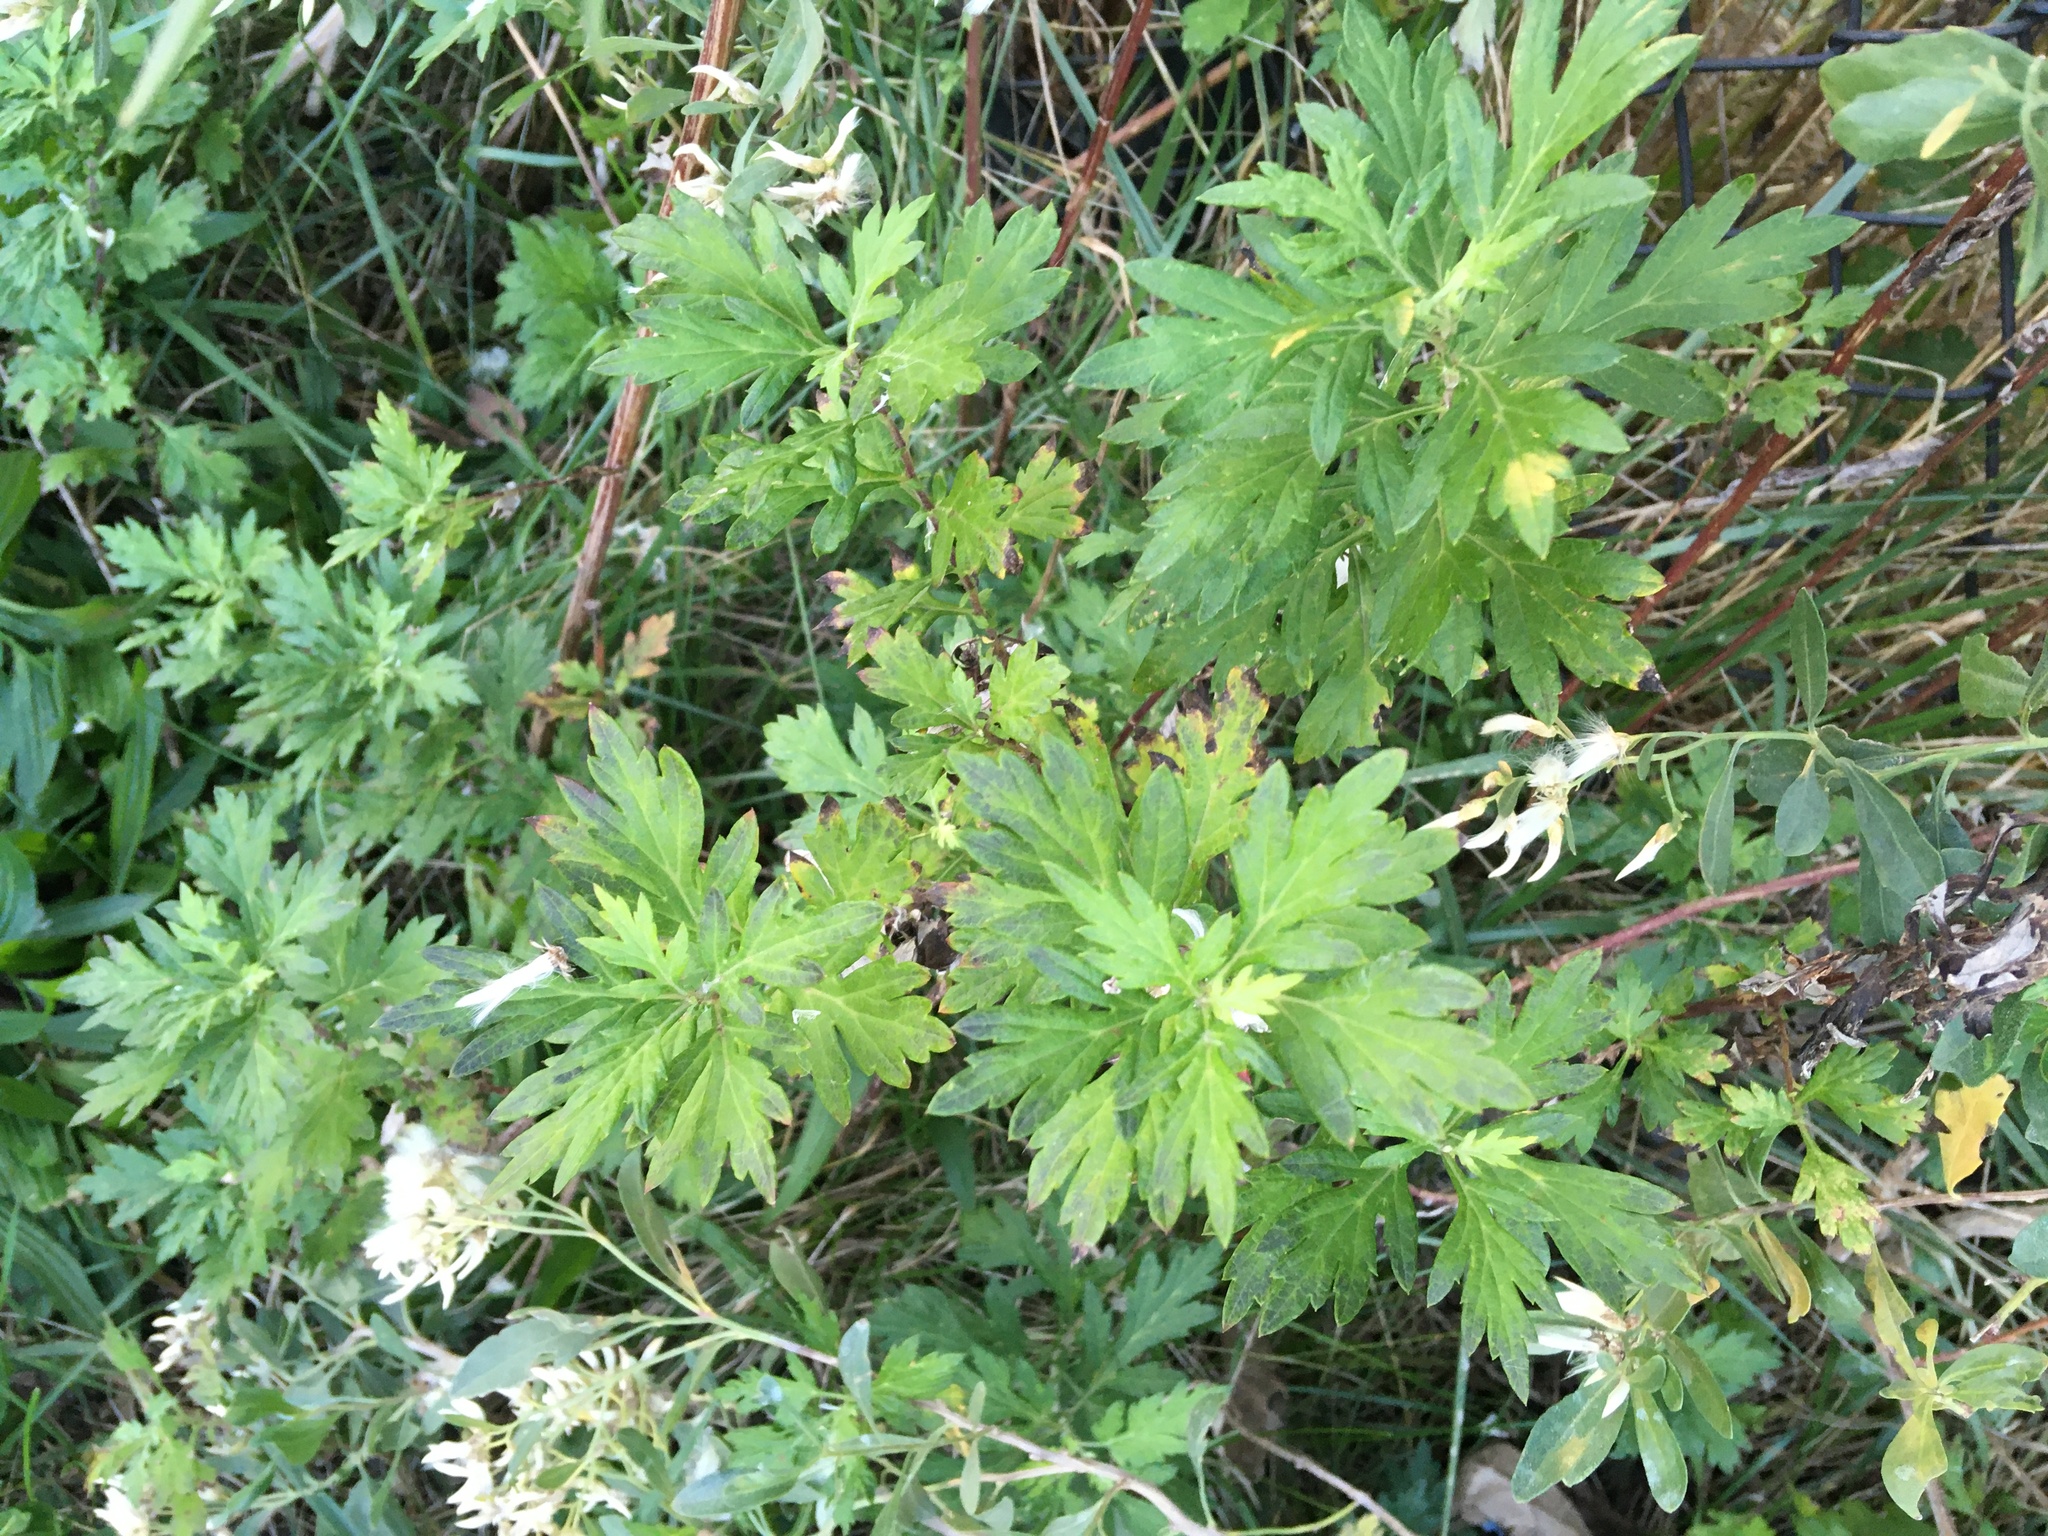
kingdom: Plantae
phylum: Tracheophyta
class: Magnoliopsida
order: Asterales
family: Asteraceae
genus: Artemisia
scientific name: Artemisia vulgaris
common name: Mugwort
